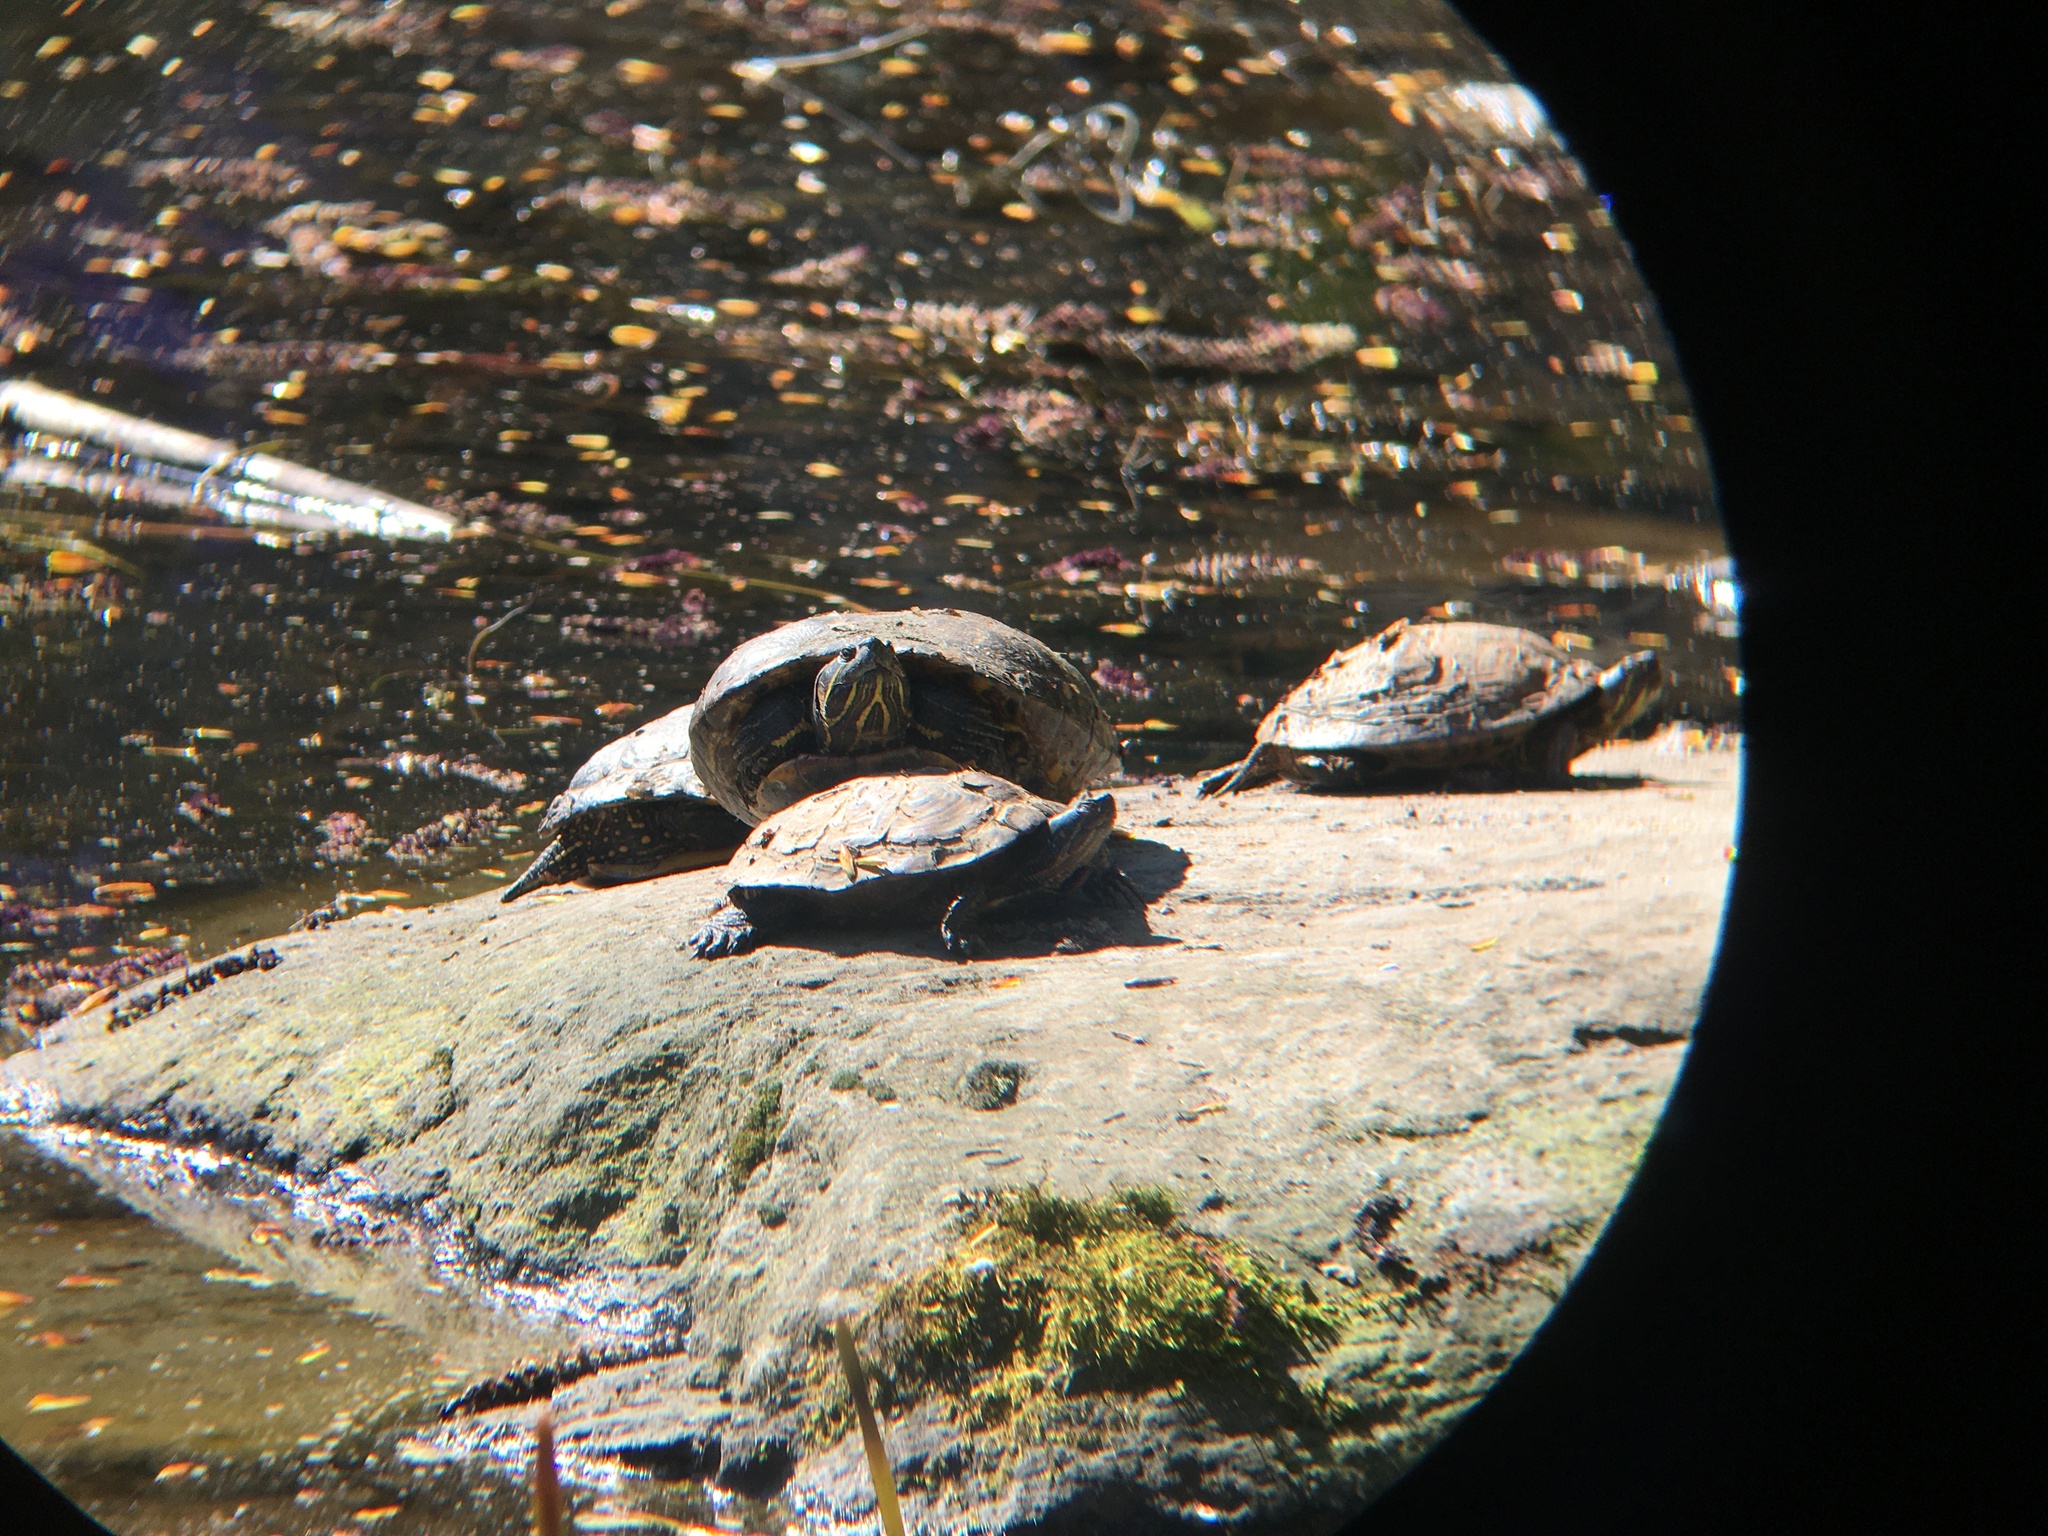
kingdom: Animalia
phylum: Chordata
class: Testudines
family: Emydidae
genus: Trachemys
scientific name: Trachemys scripta
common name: Slider
